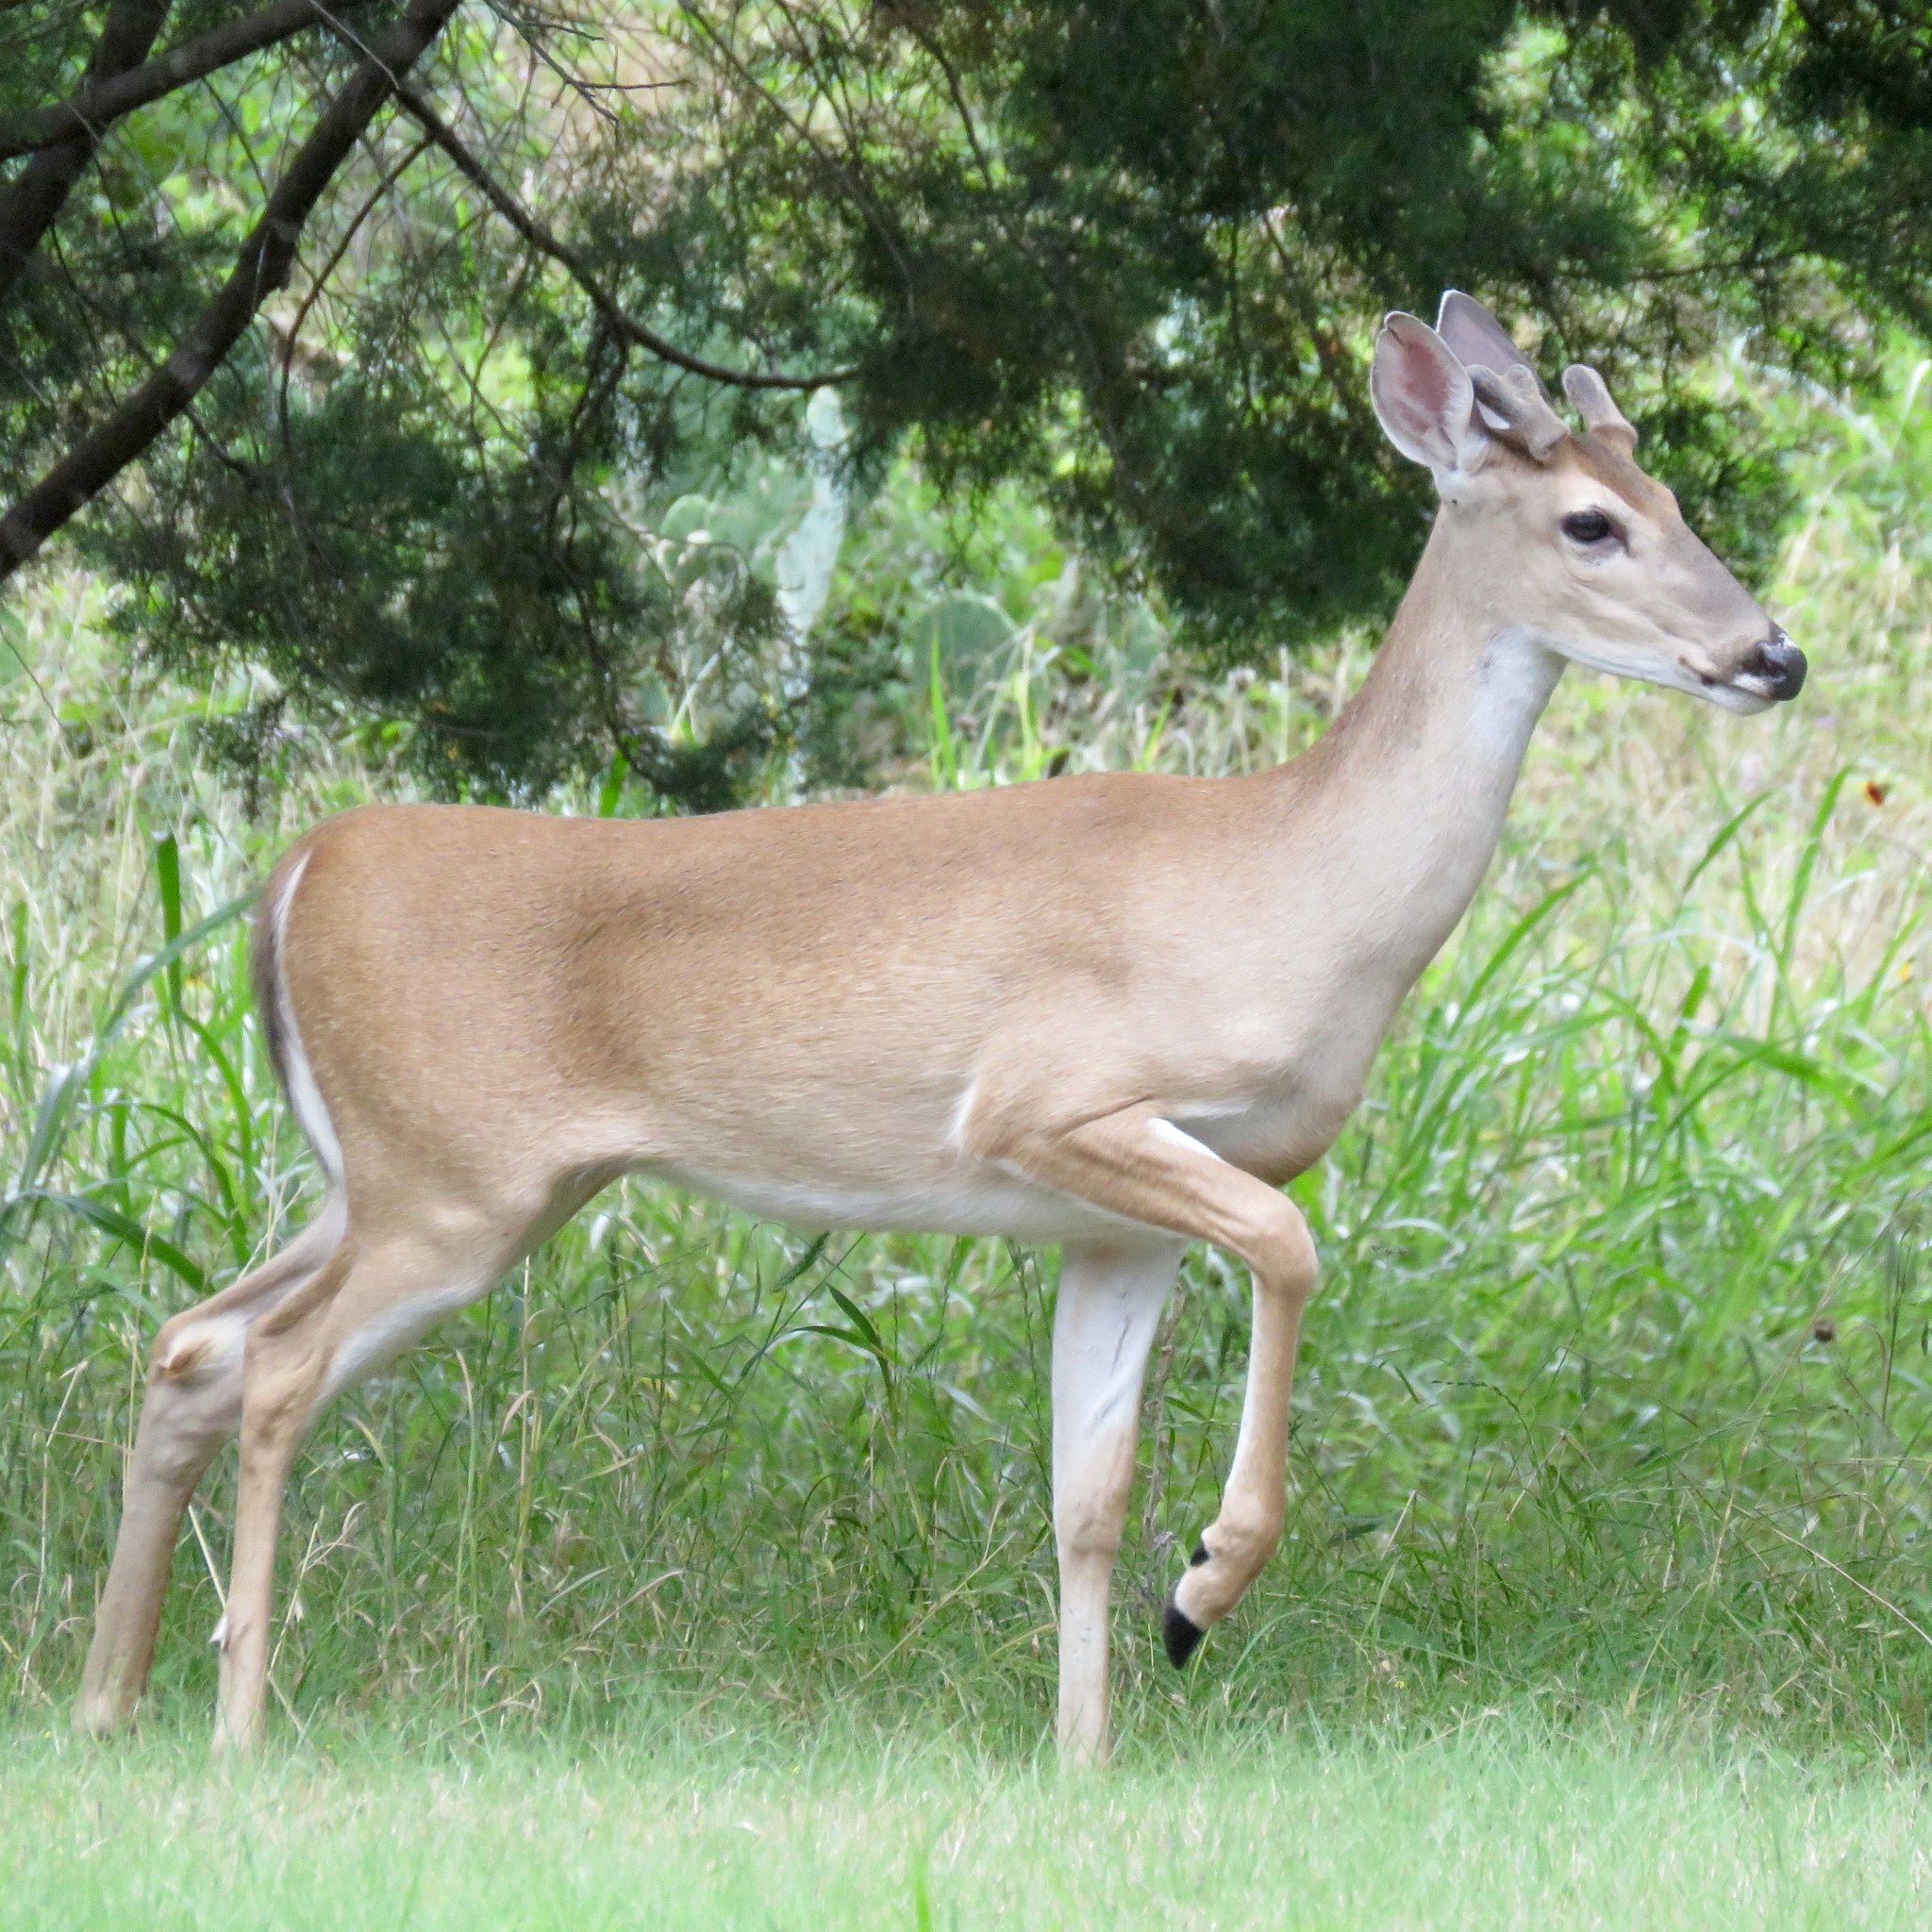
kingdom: Animalia
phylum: Chordata
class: Mammalia
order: Artiodactyla
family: Cervidae
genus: Odocoileus
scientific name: Odocoileus virginianus
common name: White-tailed deer
